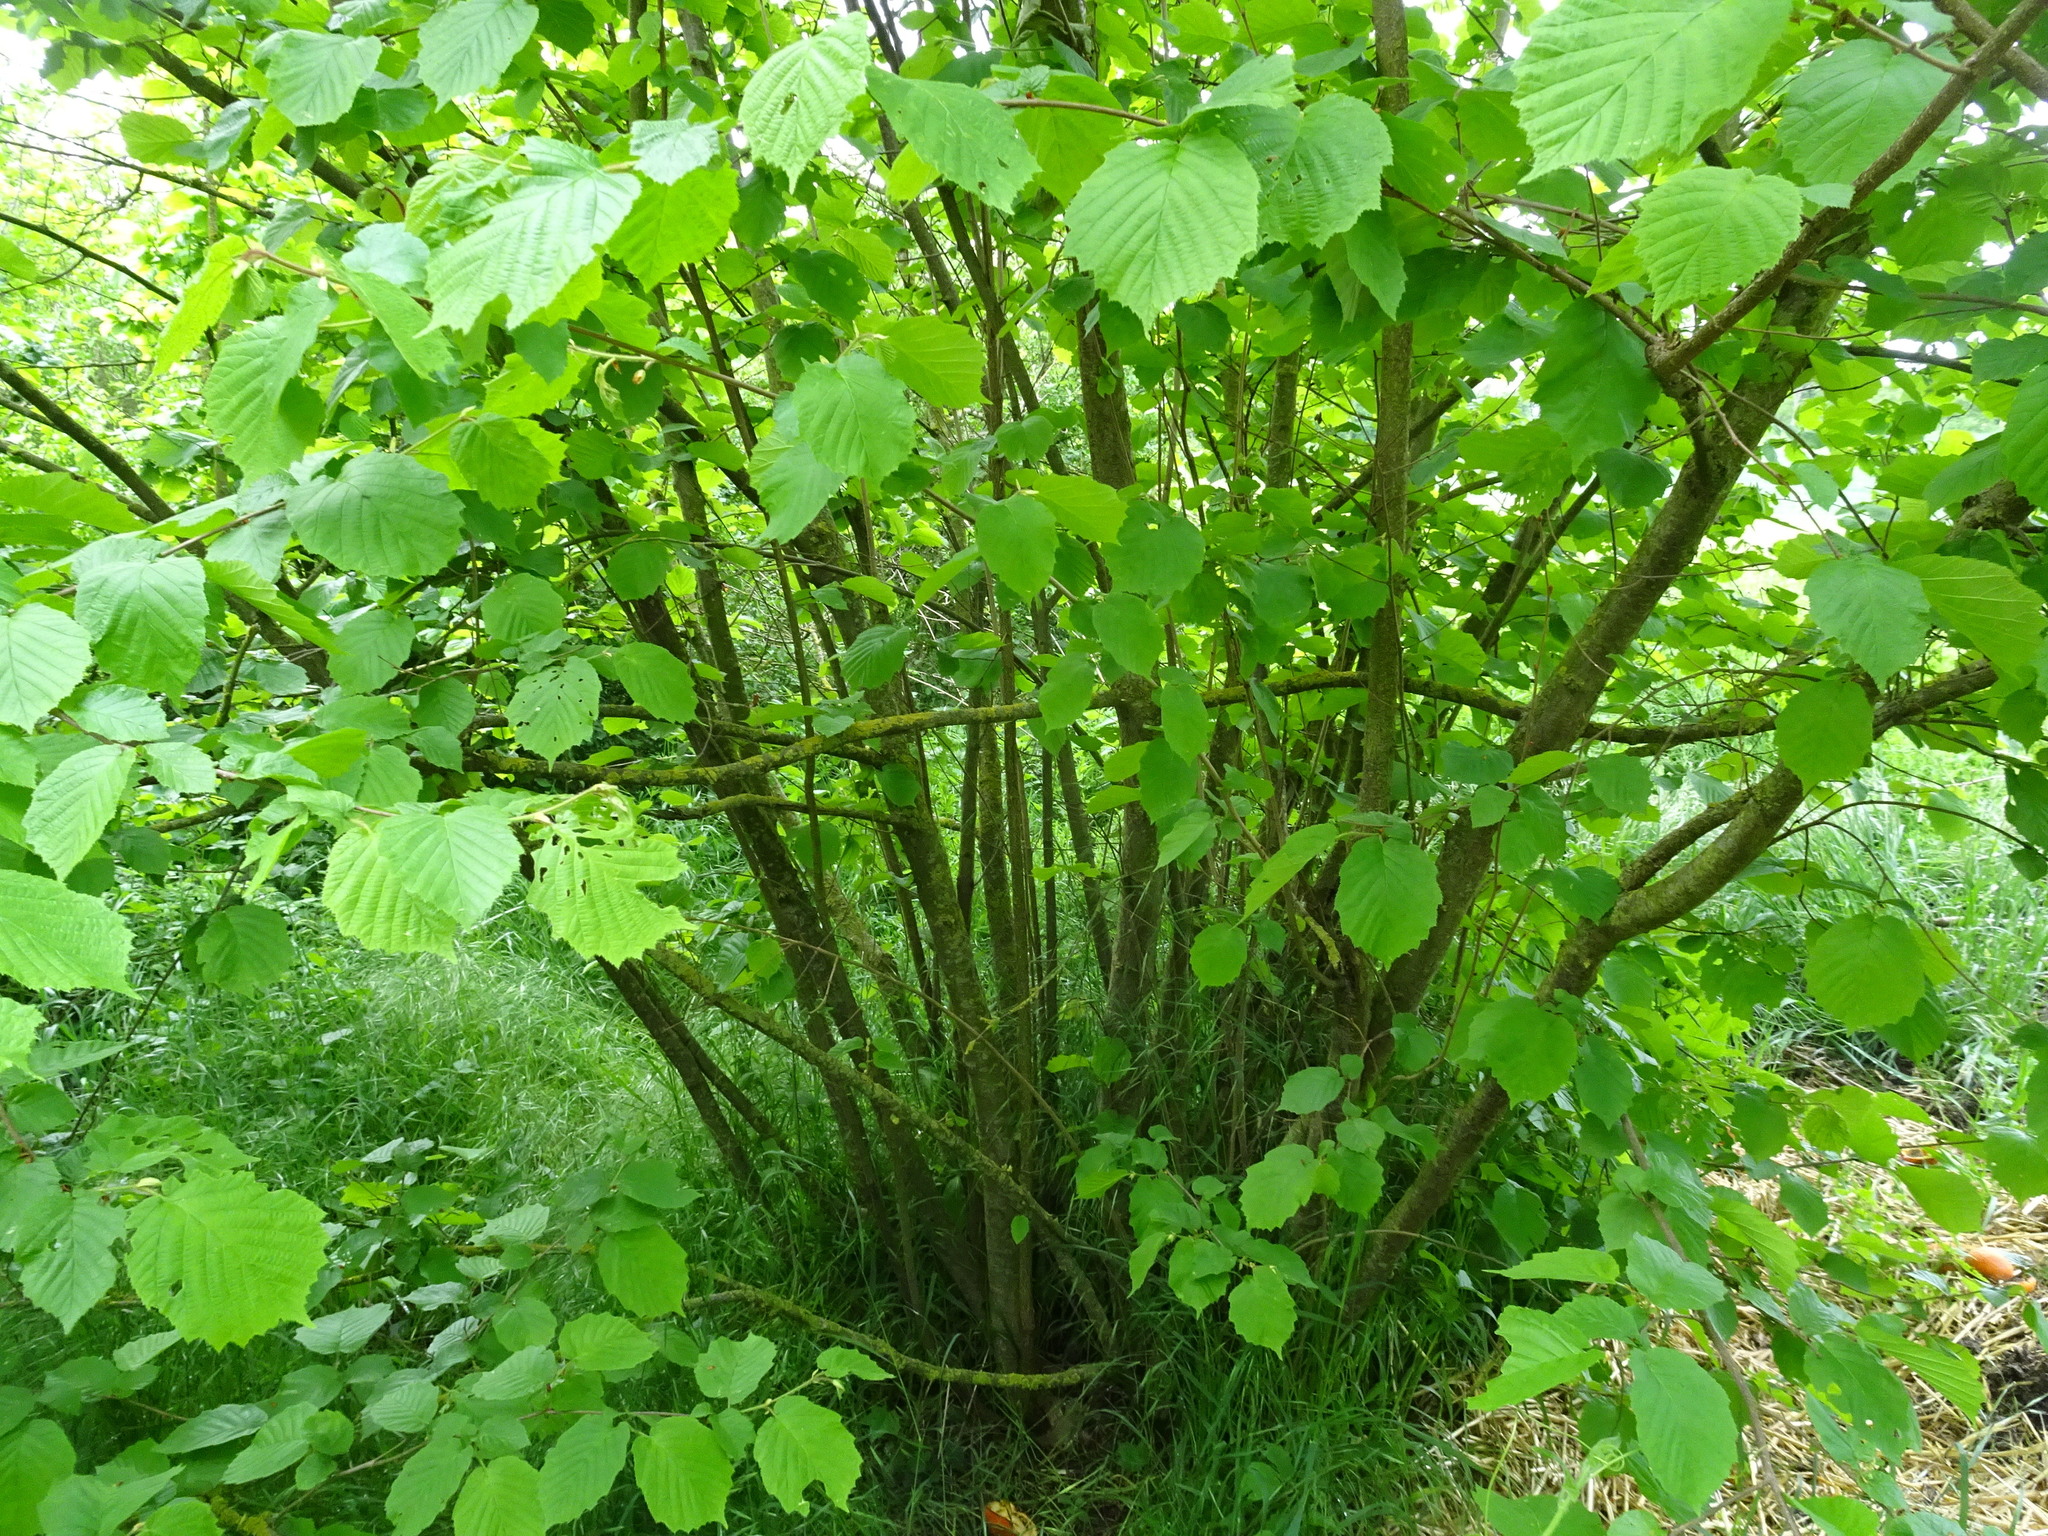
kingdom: Plantae
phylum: Tracheophyta
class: Magnoliopsida
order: Fagales
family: Betulaceae
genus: Corylus
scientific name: Corylus avellana
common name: European hazel
